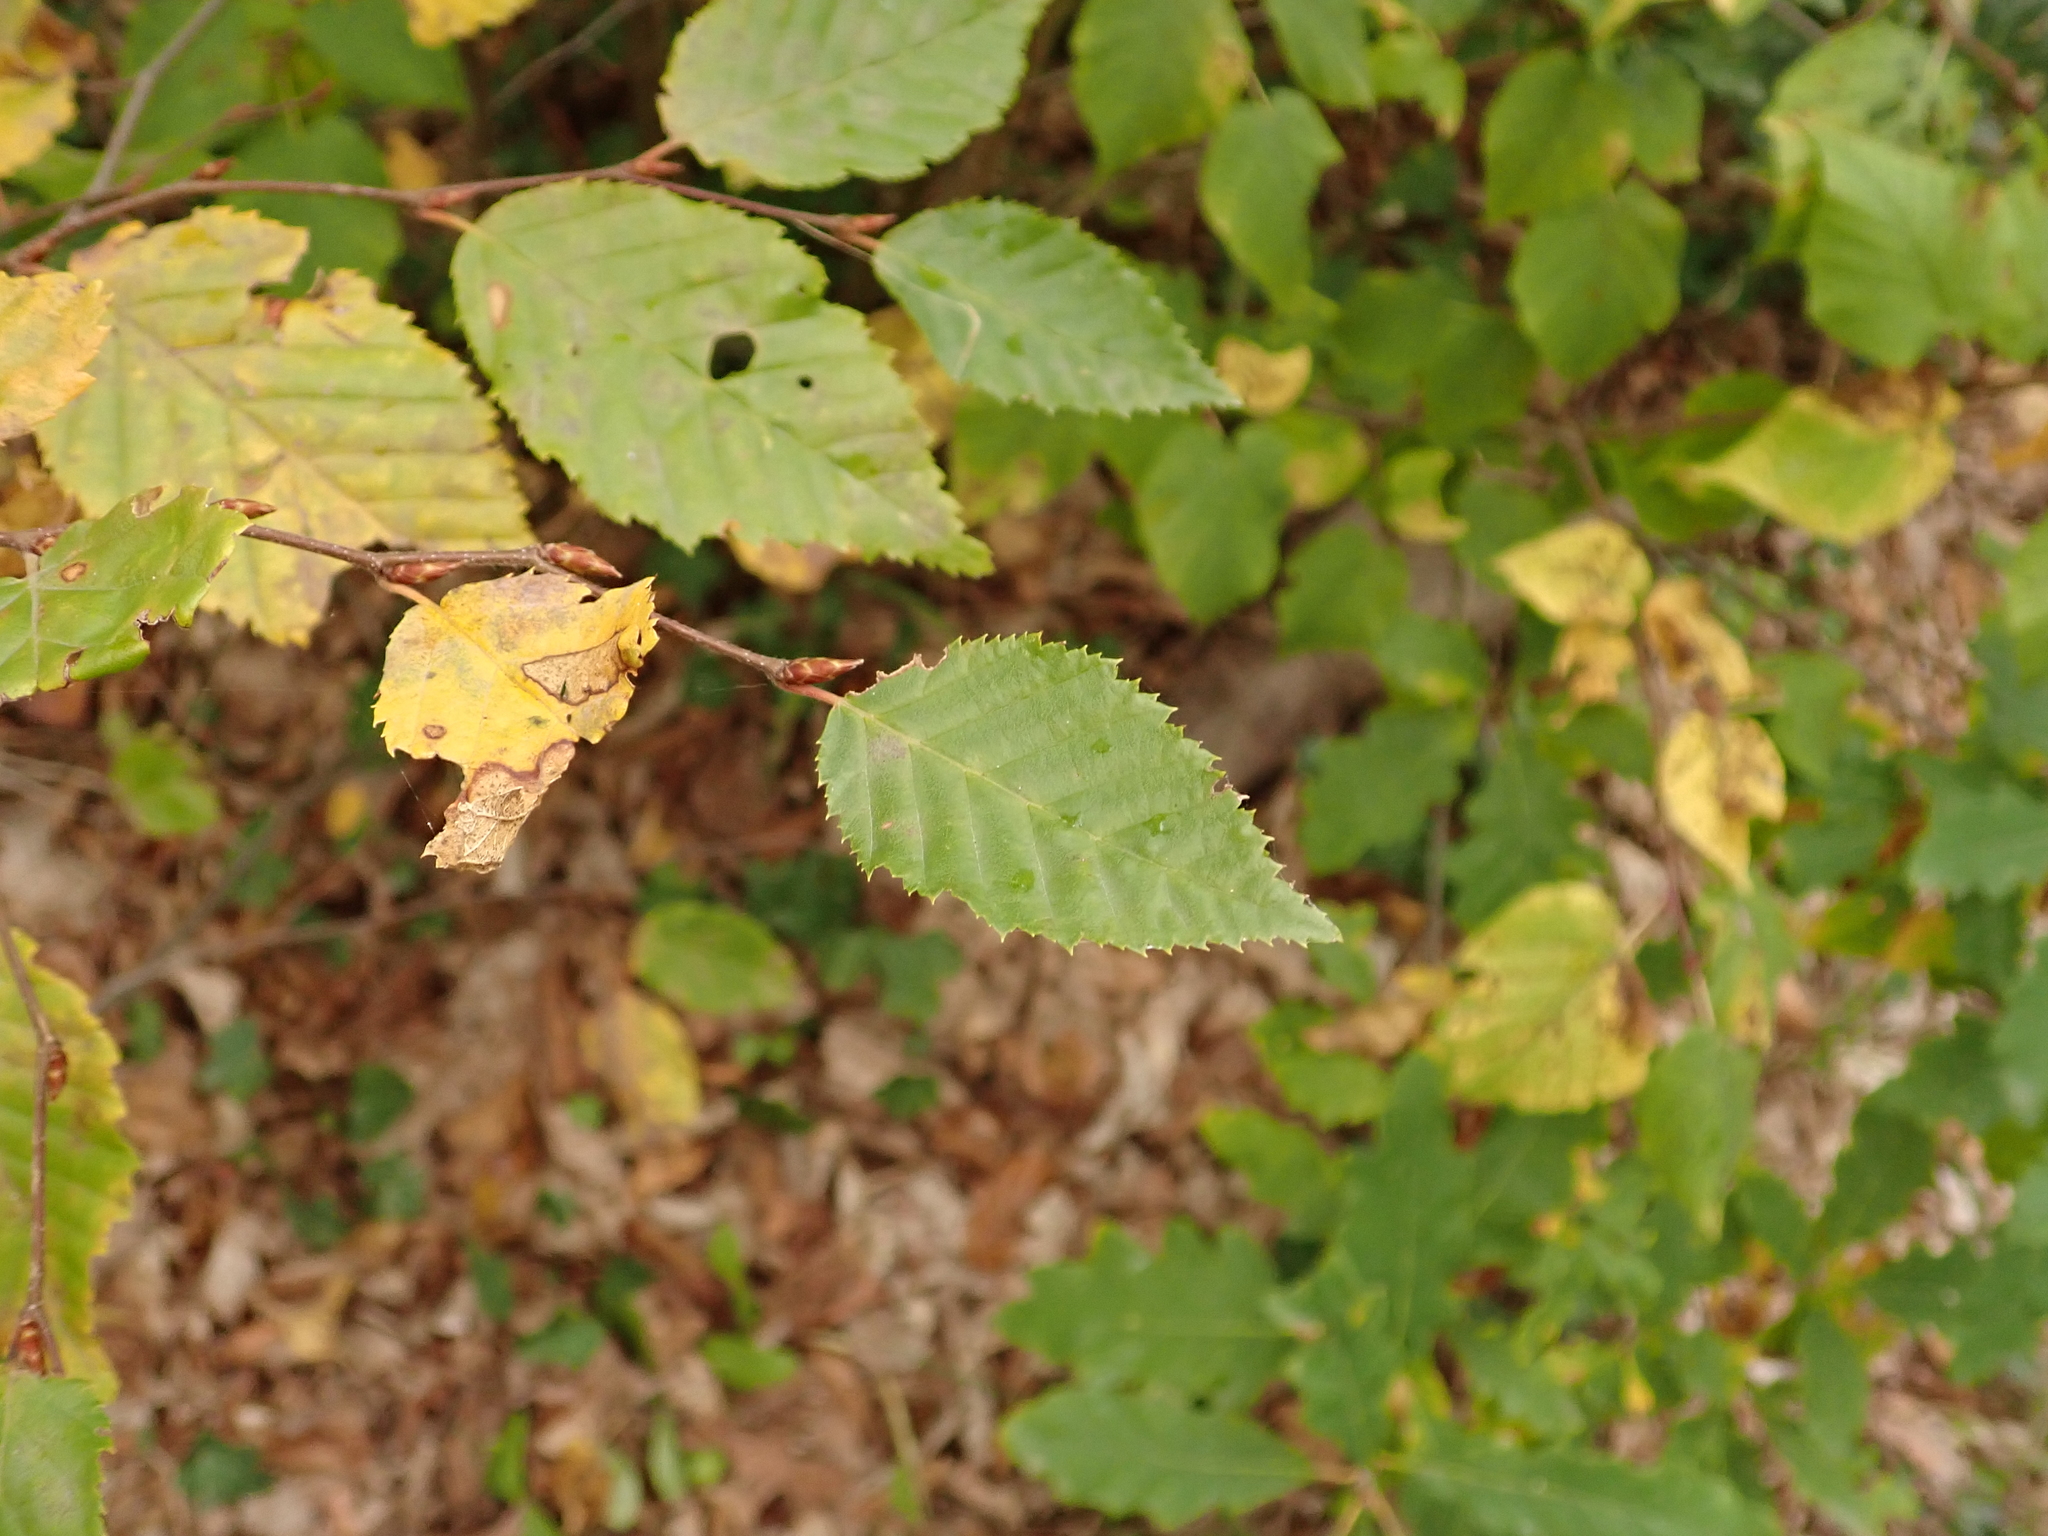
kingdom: Plantae
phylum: Tracheophyta
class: Magnoliopsida
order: Fagales
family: Betulaceae
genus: Carpinus
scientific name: Carpinus betulus
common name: Hornbeam
